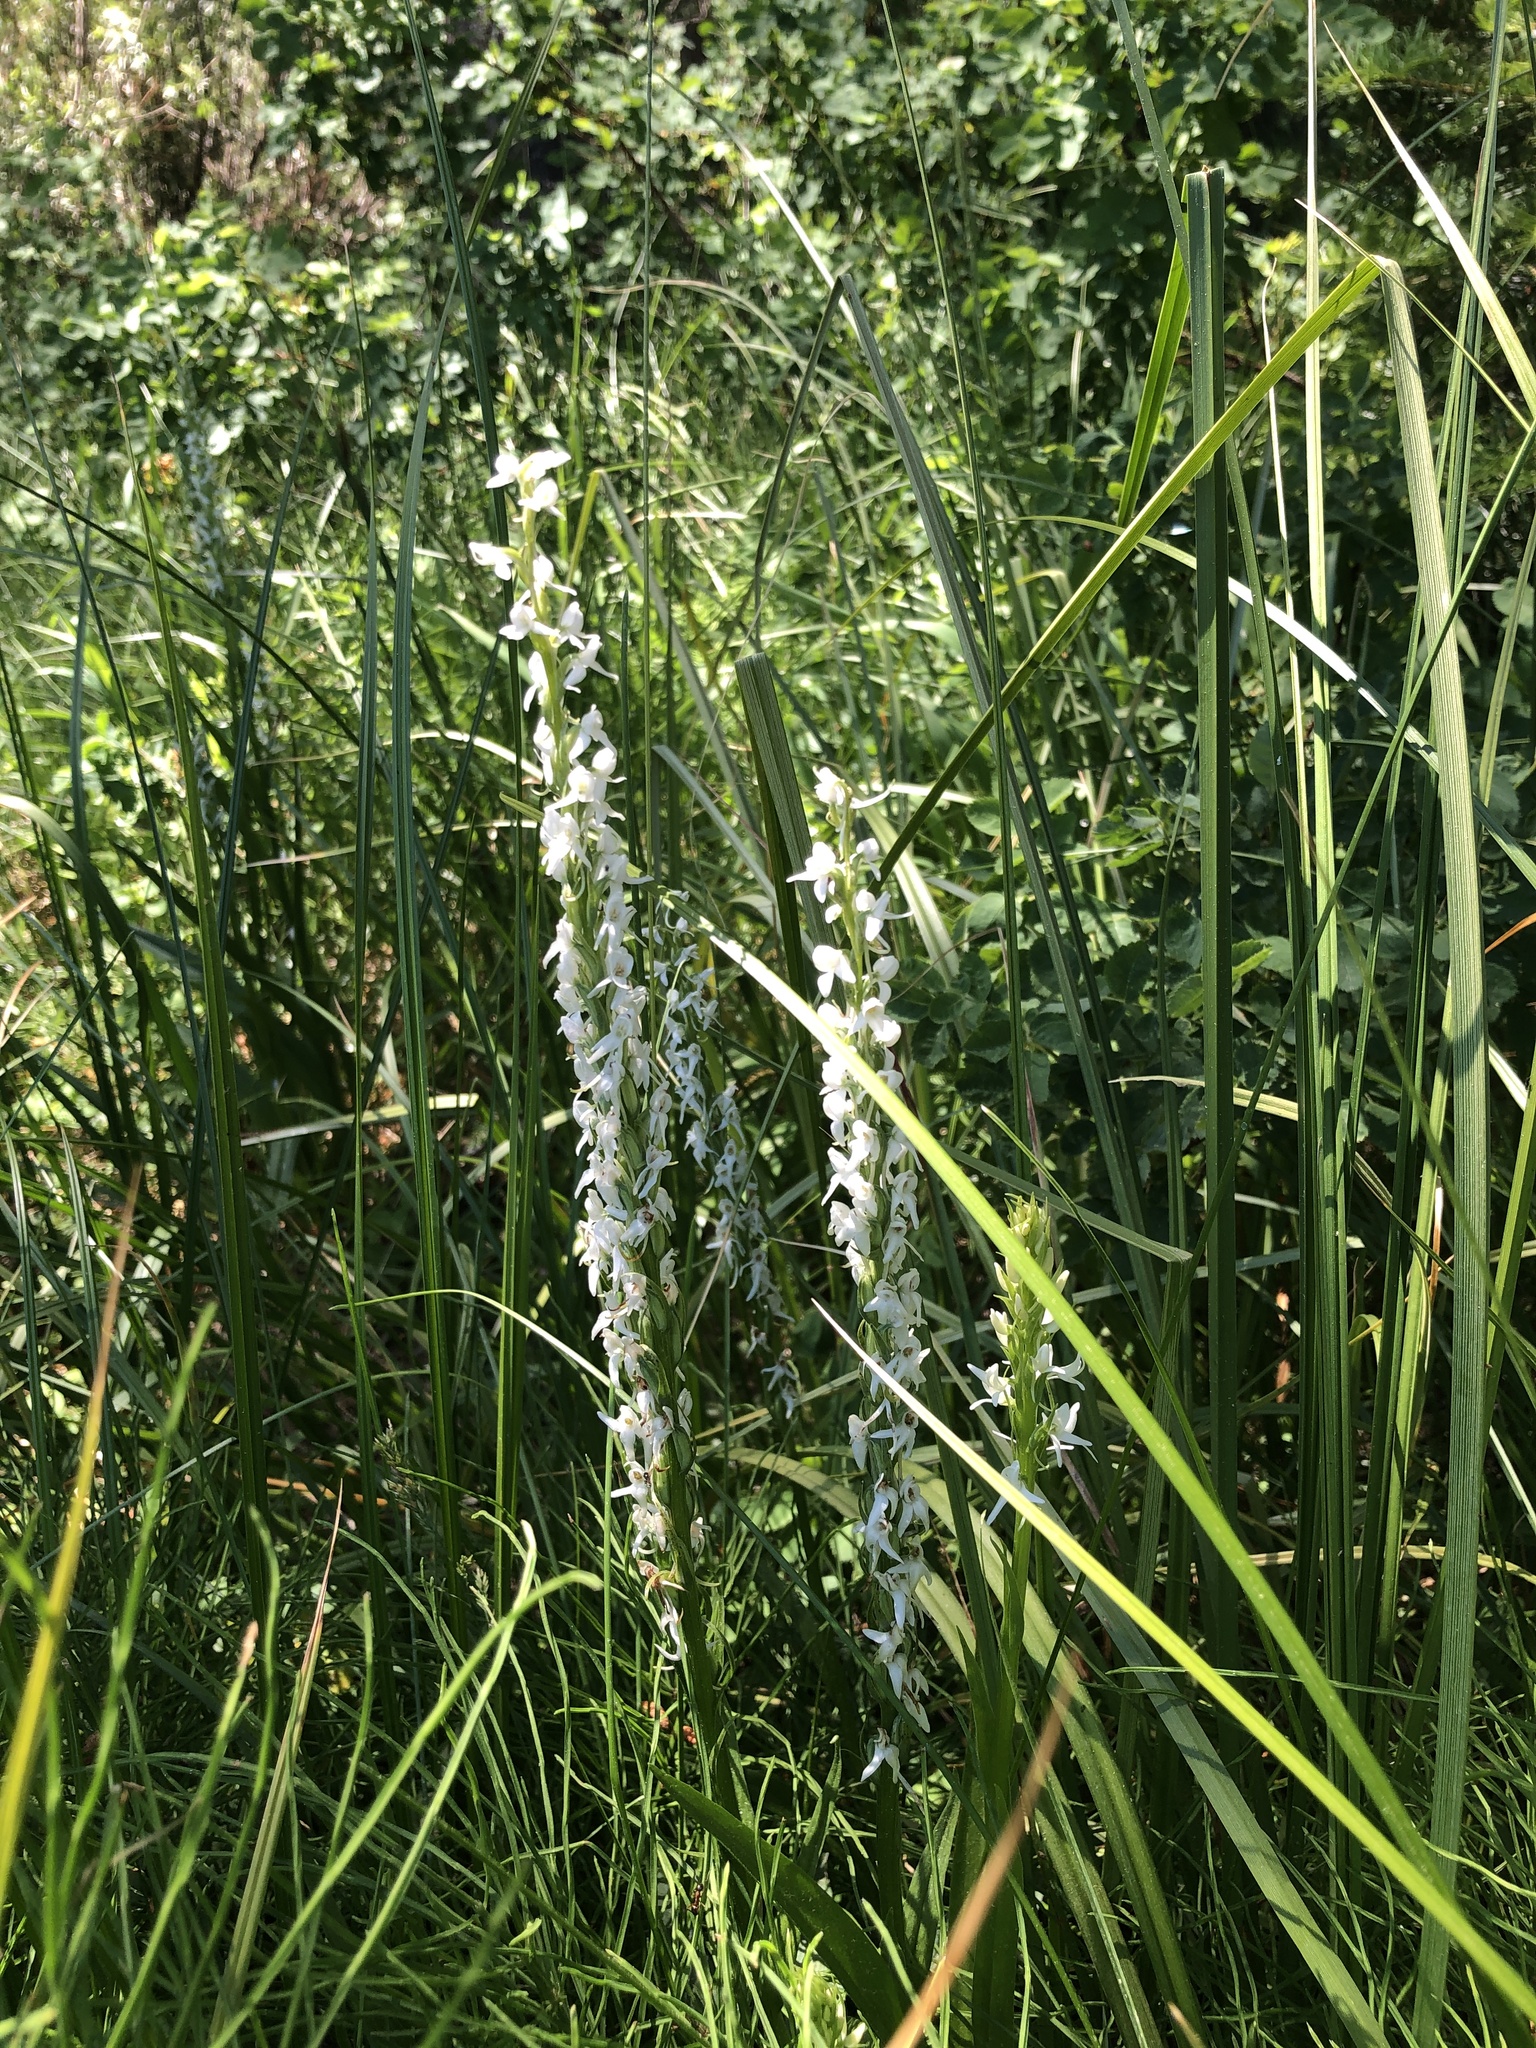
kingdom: Plantae
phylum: Tracheophyta
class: Liliopsida
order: Asparagales
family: Orchidaceae
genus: Platanthera
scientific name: Platanthera dilatata
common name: Bog candles
